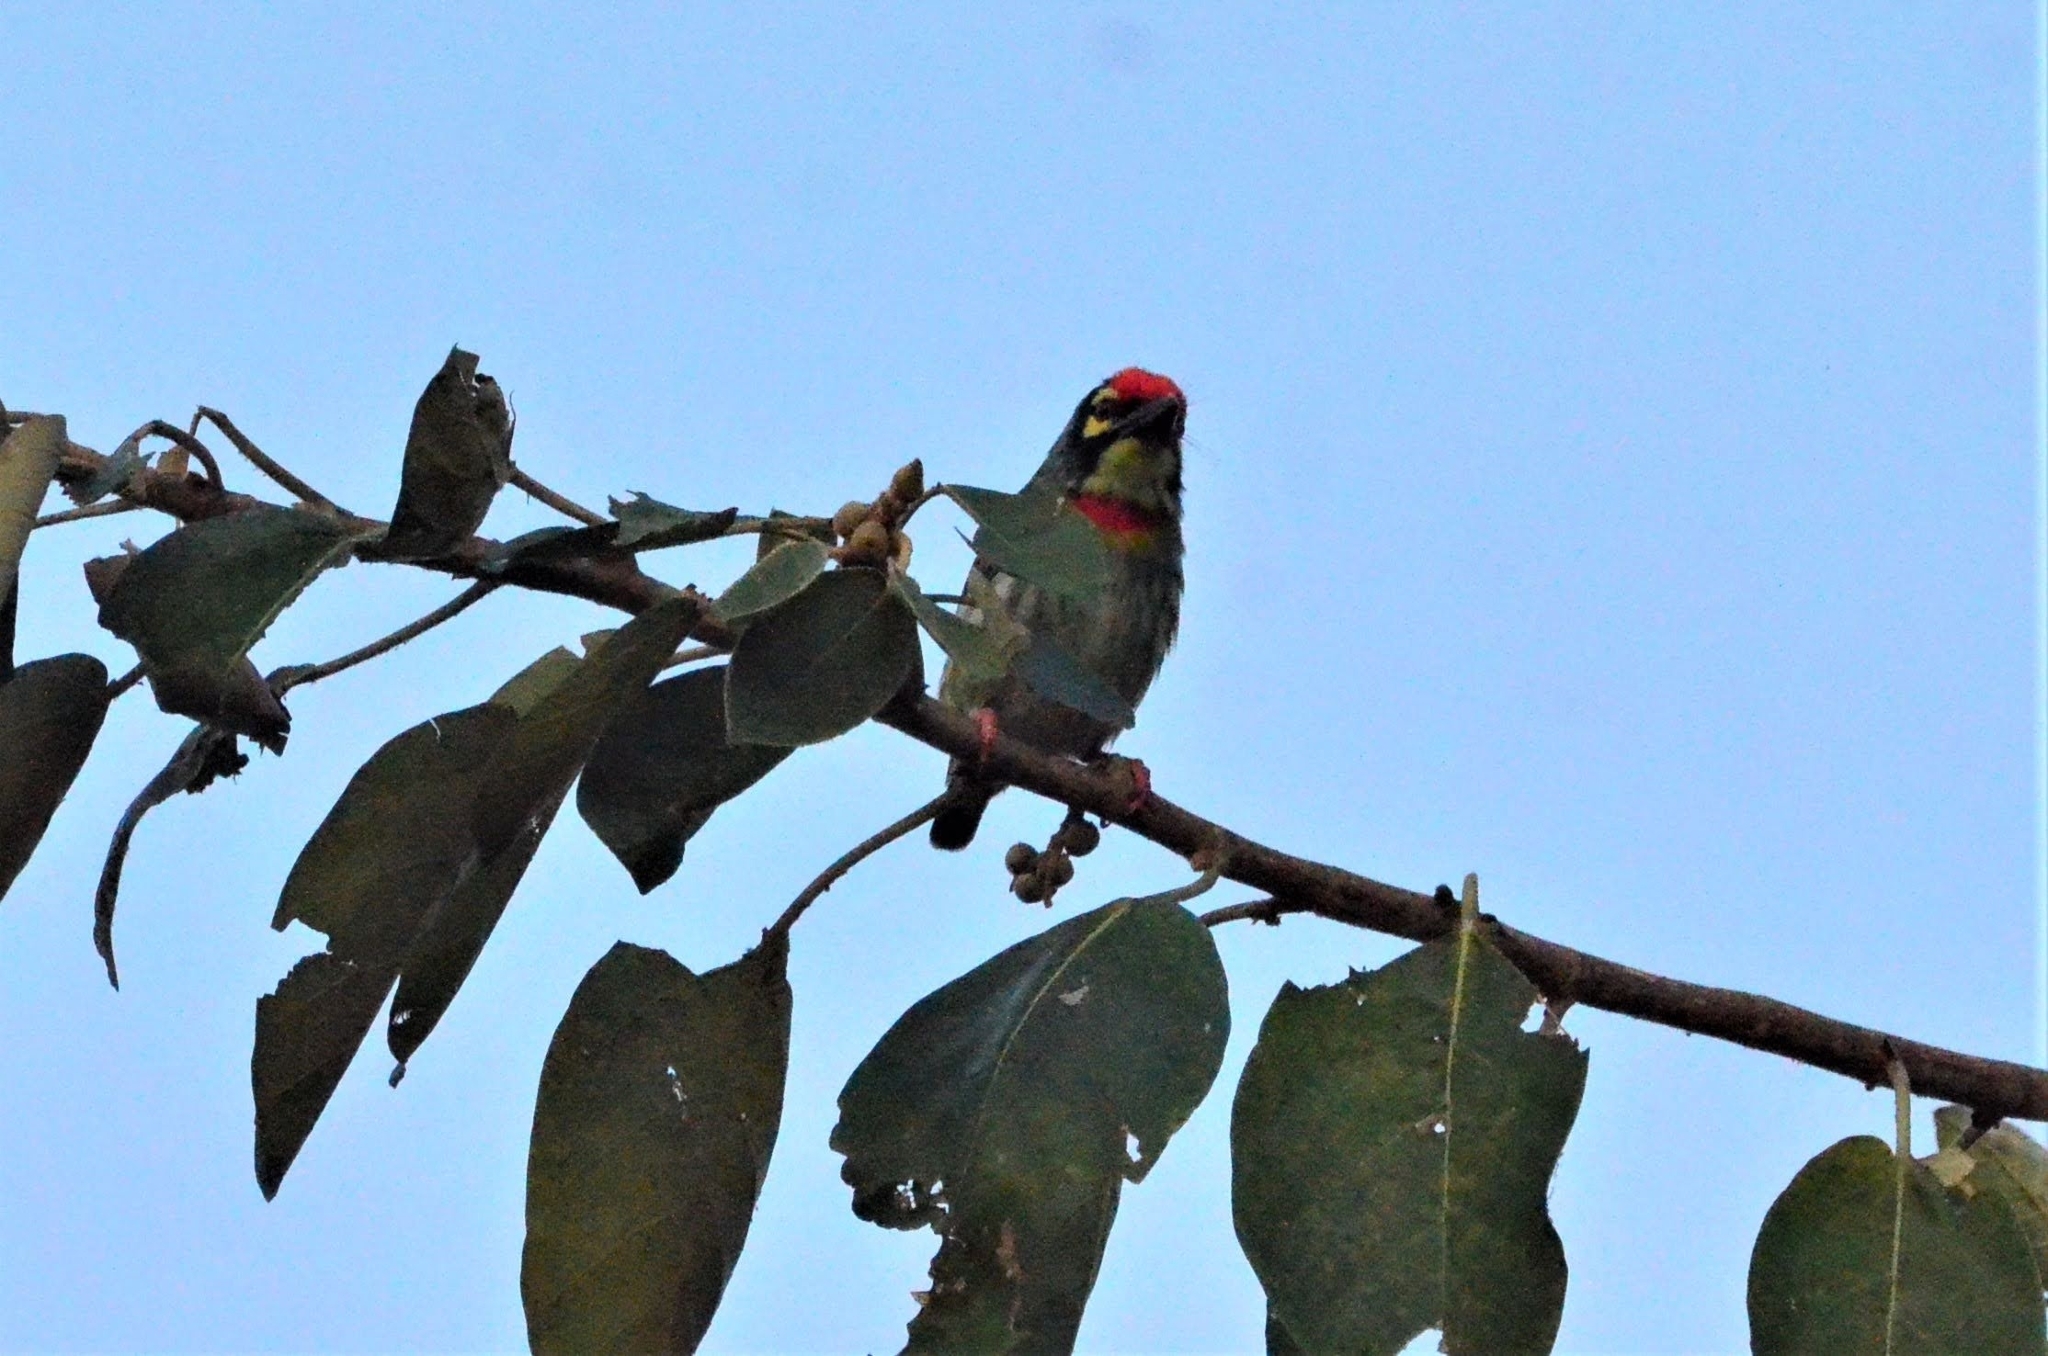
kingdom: Animalia
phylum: Chordata
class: Aves
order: Piciformes
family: Megalaimidae
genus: Psilopogon
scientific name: Psilopogon haemacephalus
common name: Coppersmith barbet
